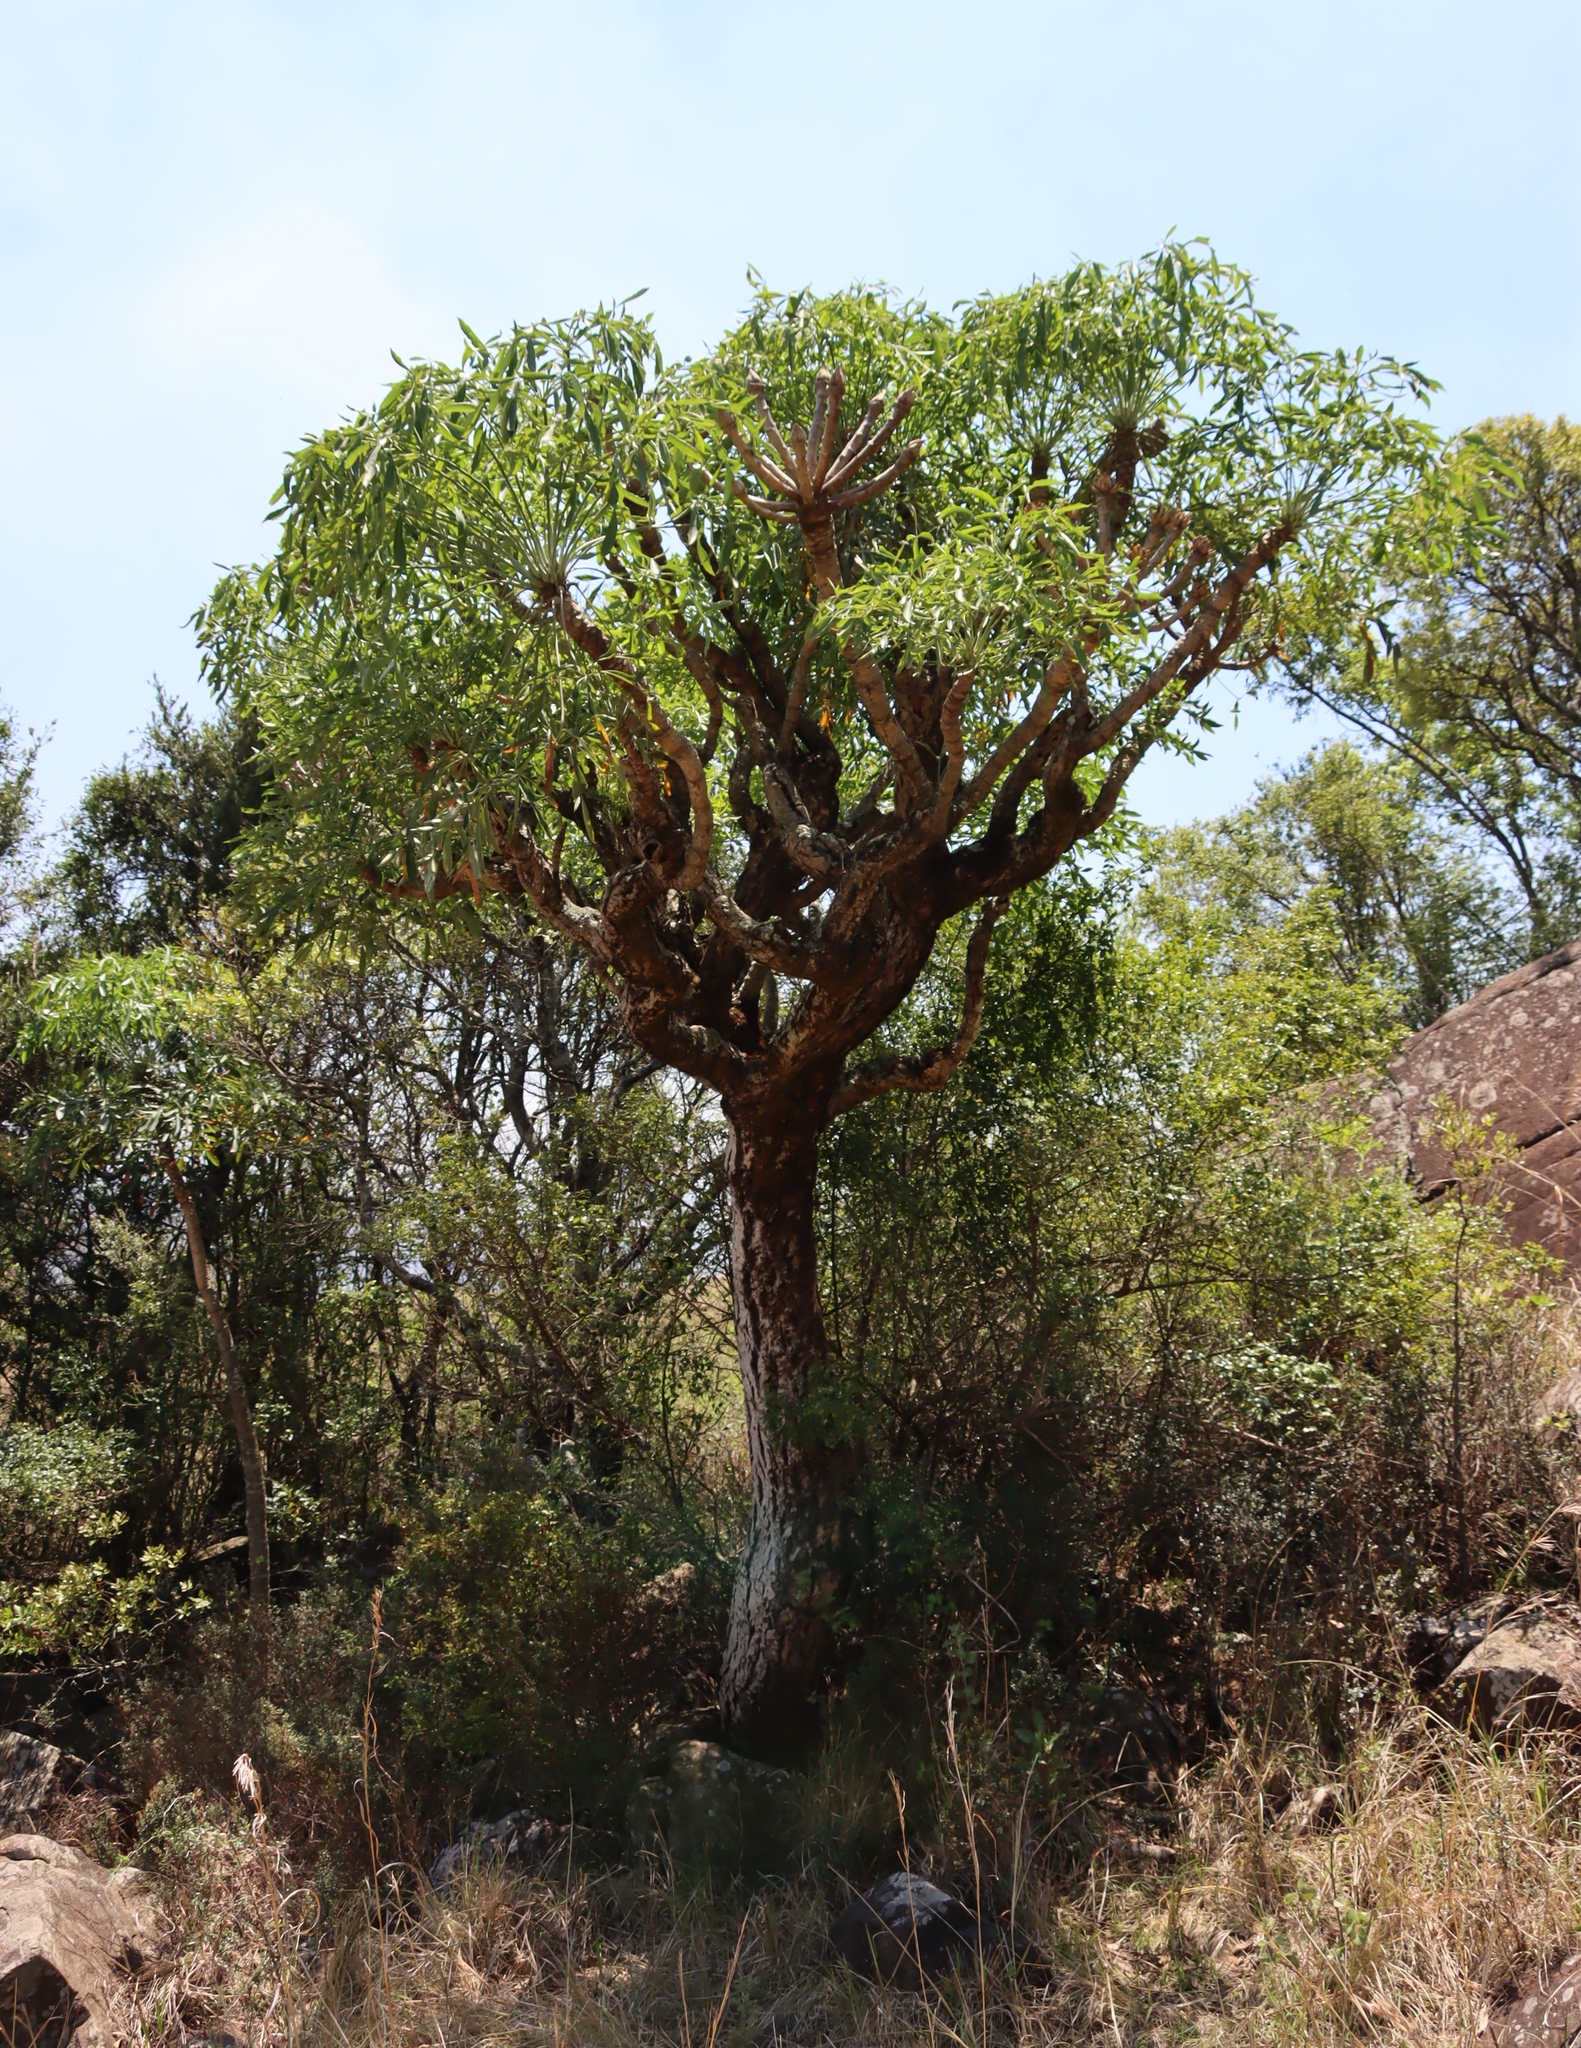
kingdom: Plantae
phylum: Tracheophyta
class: Magnoliopsida
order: Apiales
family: Araliaceae
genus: Cussonia
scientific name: Cussonia spicata
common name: Common cabbagetree
